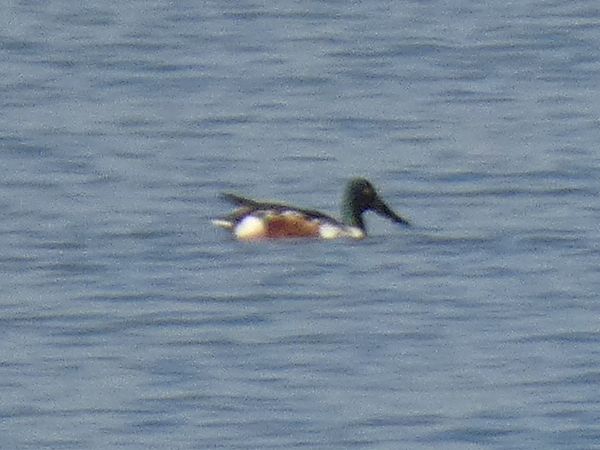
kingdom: Animalia
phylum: Chordata
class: Aves
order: Anseriformes
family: Anatidae
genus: Spatula
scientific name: Spatula clypeata
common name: Northern shoveler
